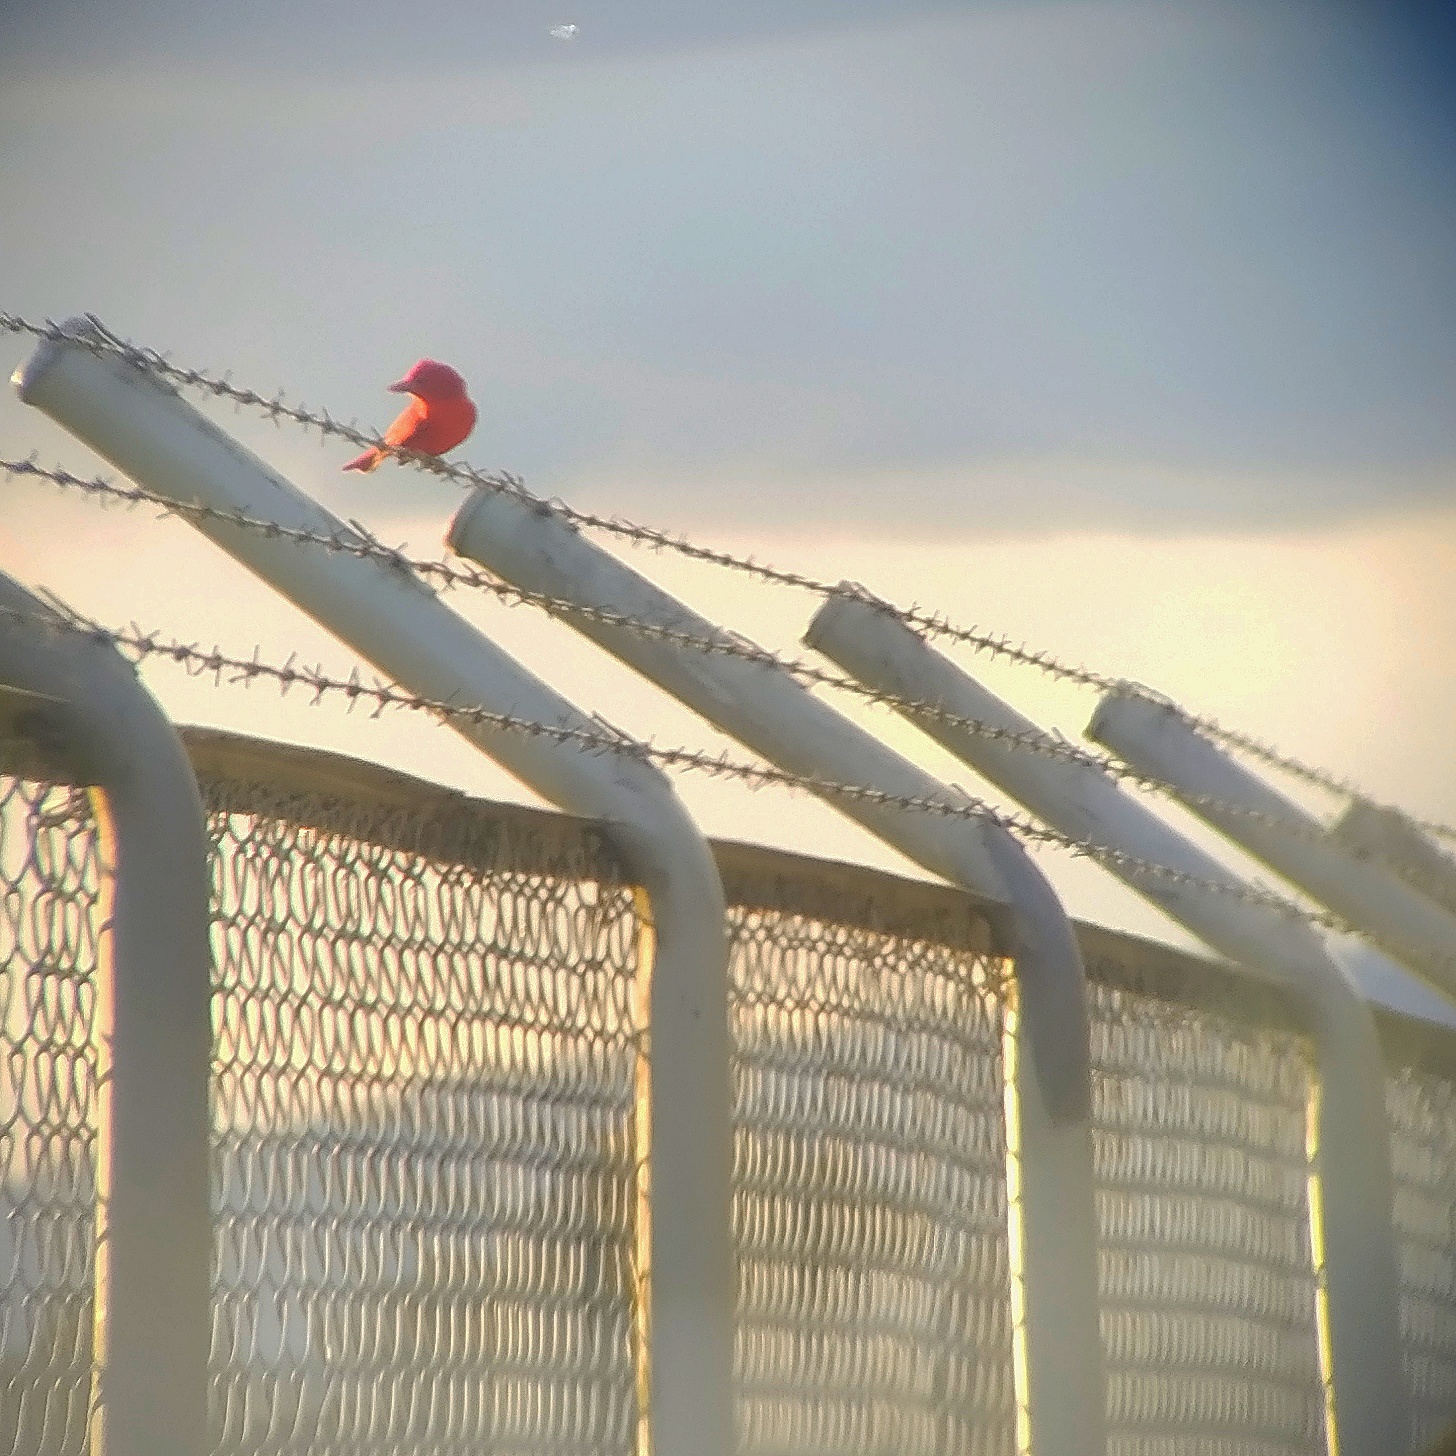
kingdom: Animalia
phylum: Chordata
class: Aves
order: Passeriformes
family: Cardinalidae
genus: Piranga
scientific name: Piranga rubra
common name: Summer tanager
